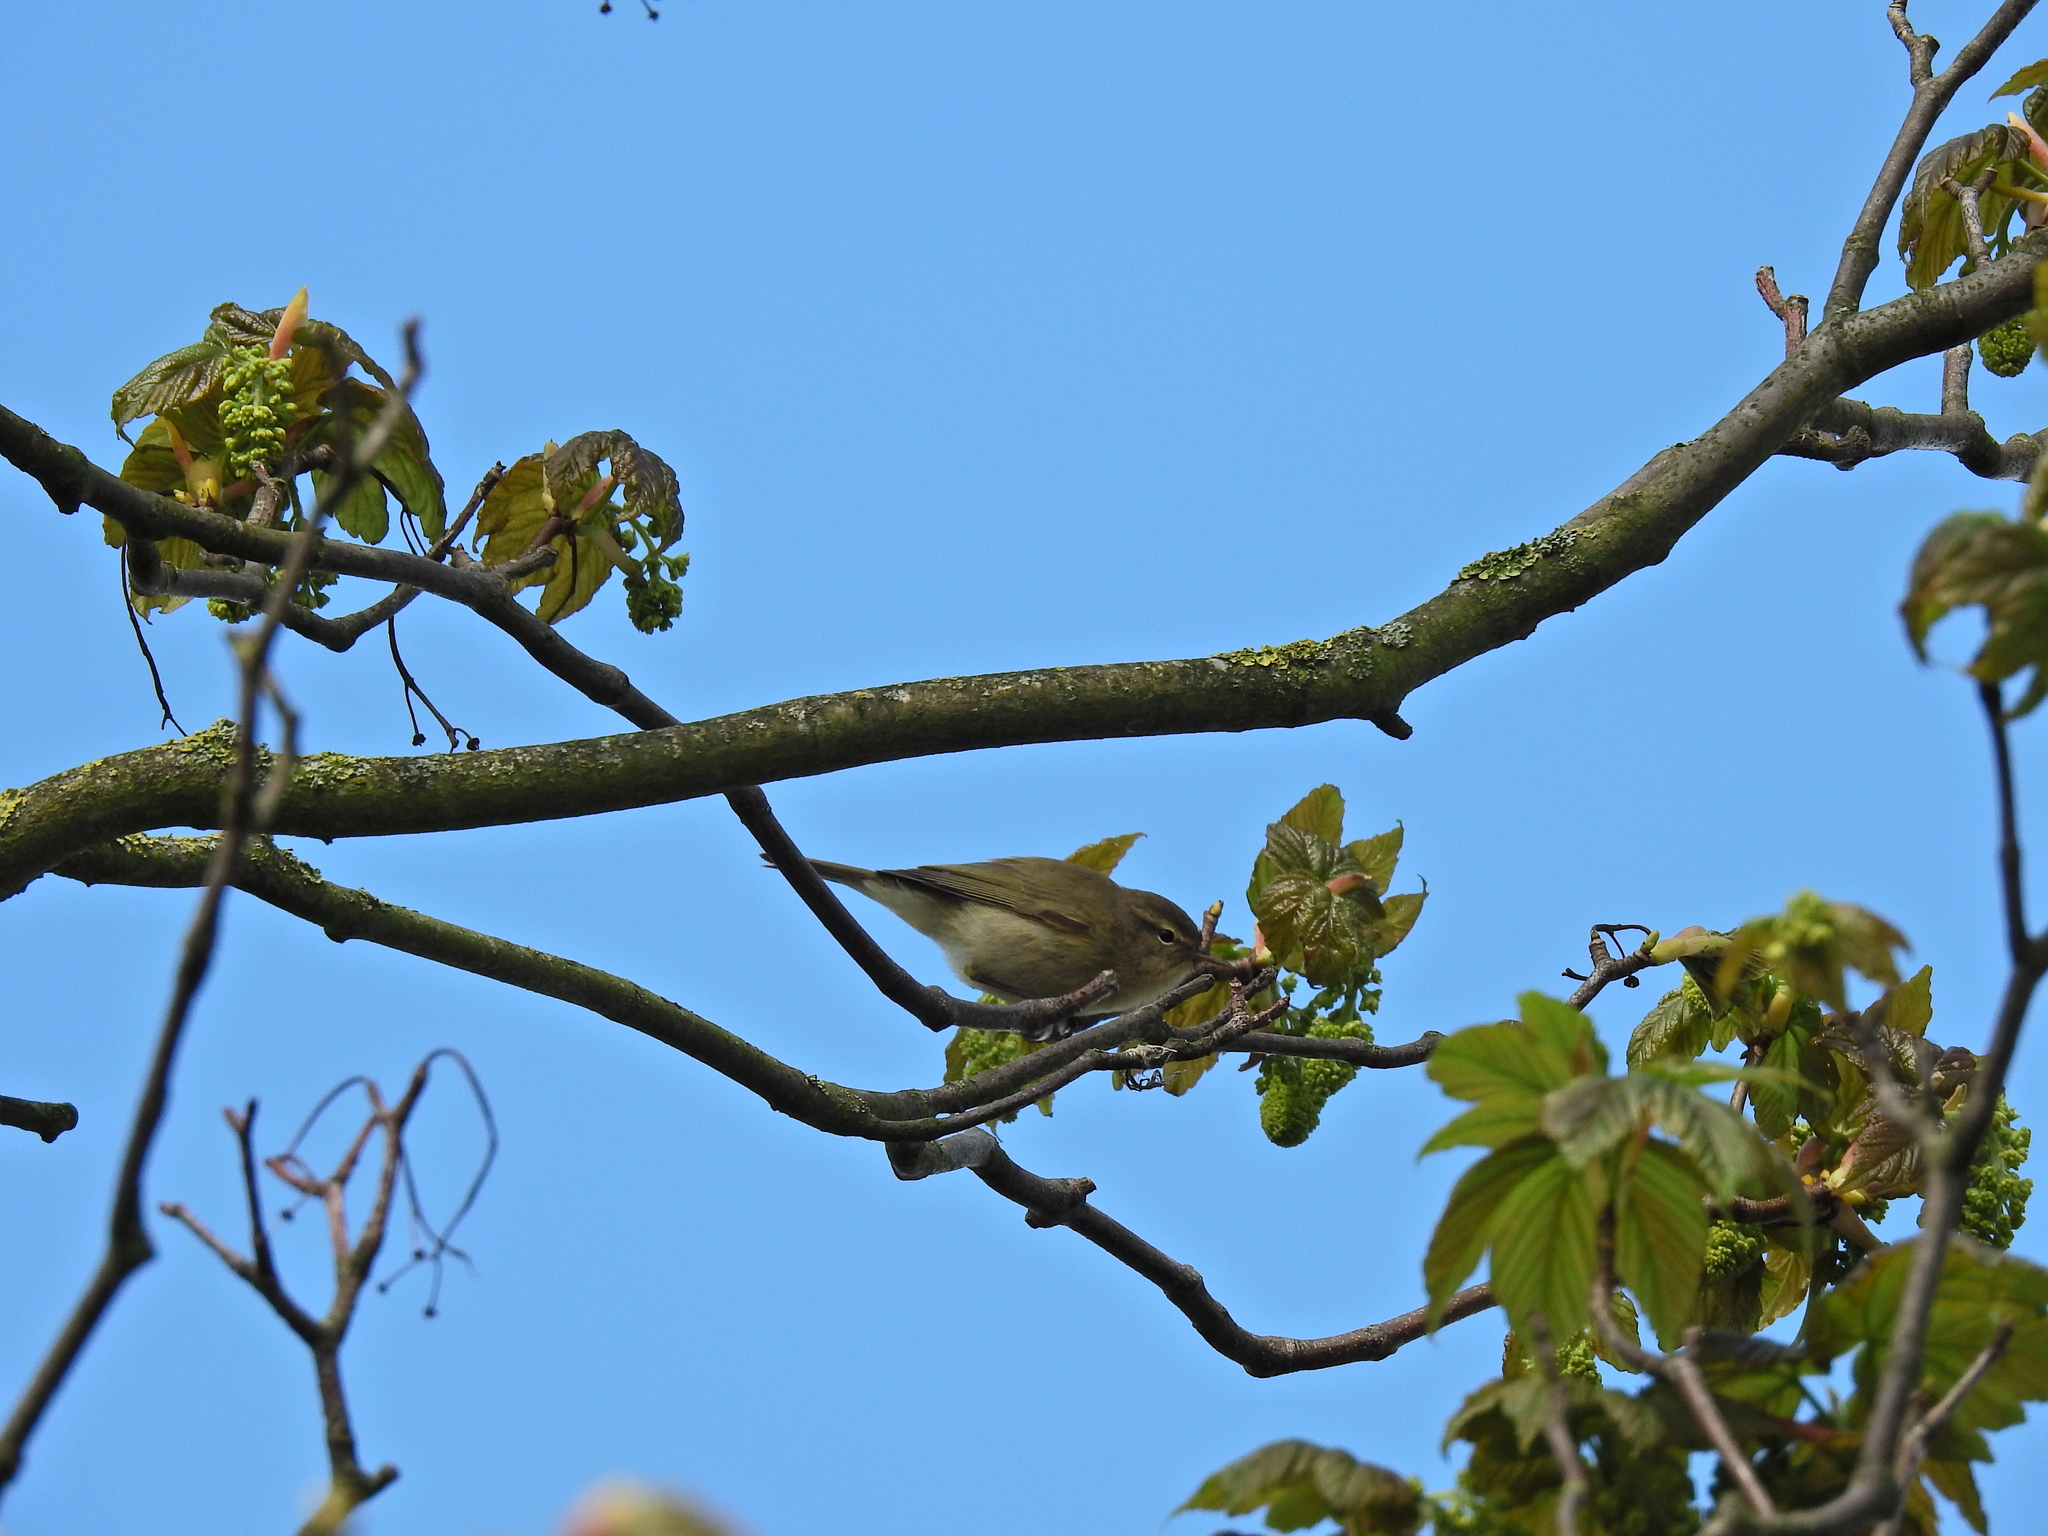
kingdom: Animalia
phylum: Chordata
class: Aves
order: Passeriformes
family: Phylloscopidae
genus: Phylloscopus
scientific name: Phylloscopus collybita
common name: Common chiffchaff
